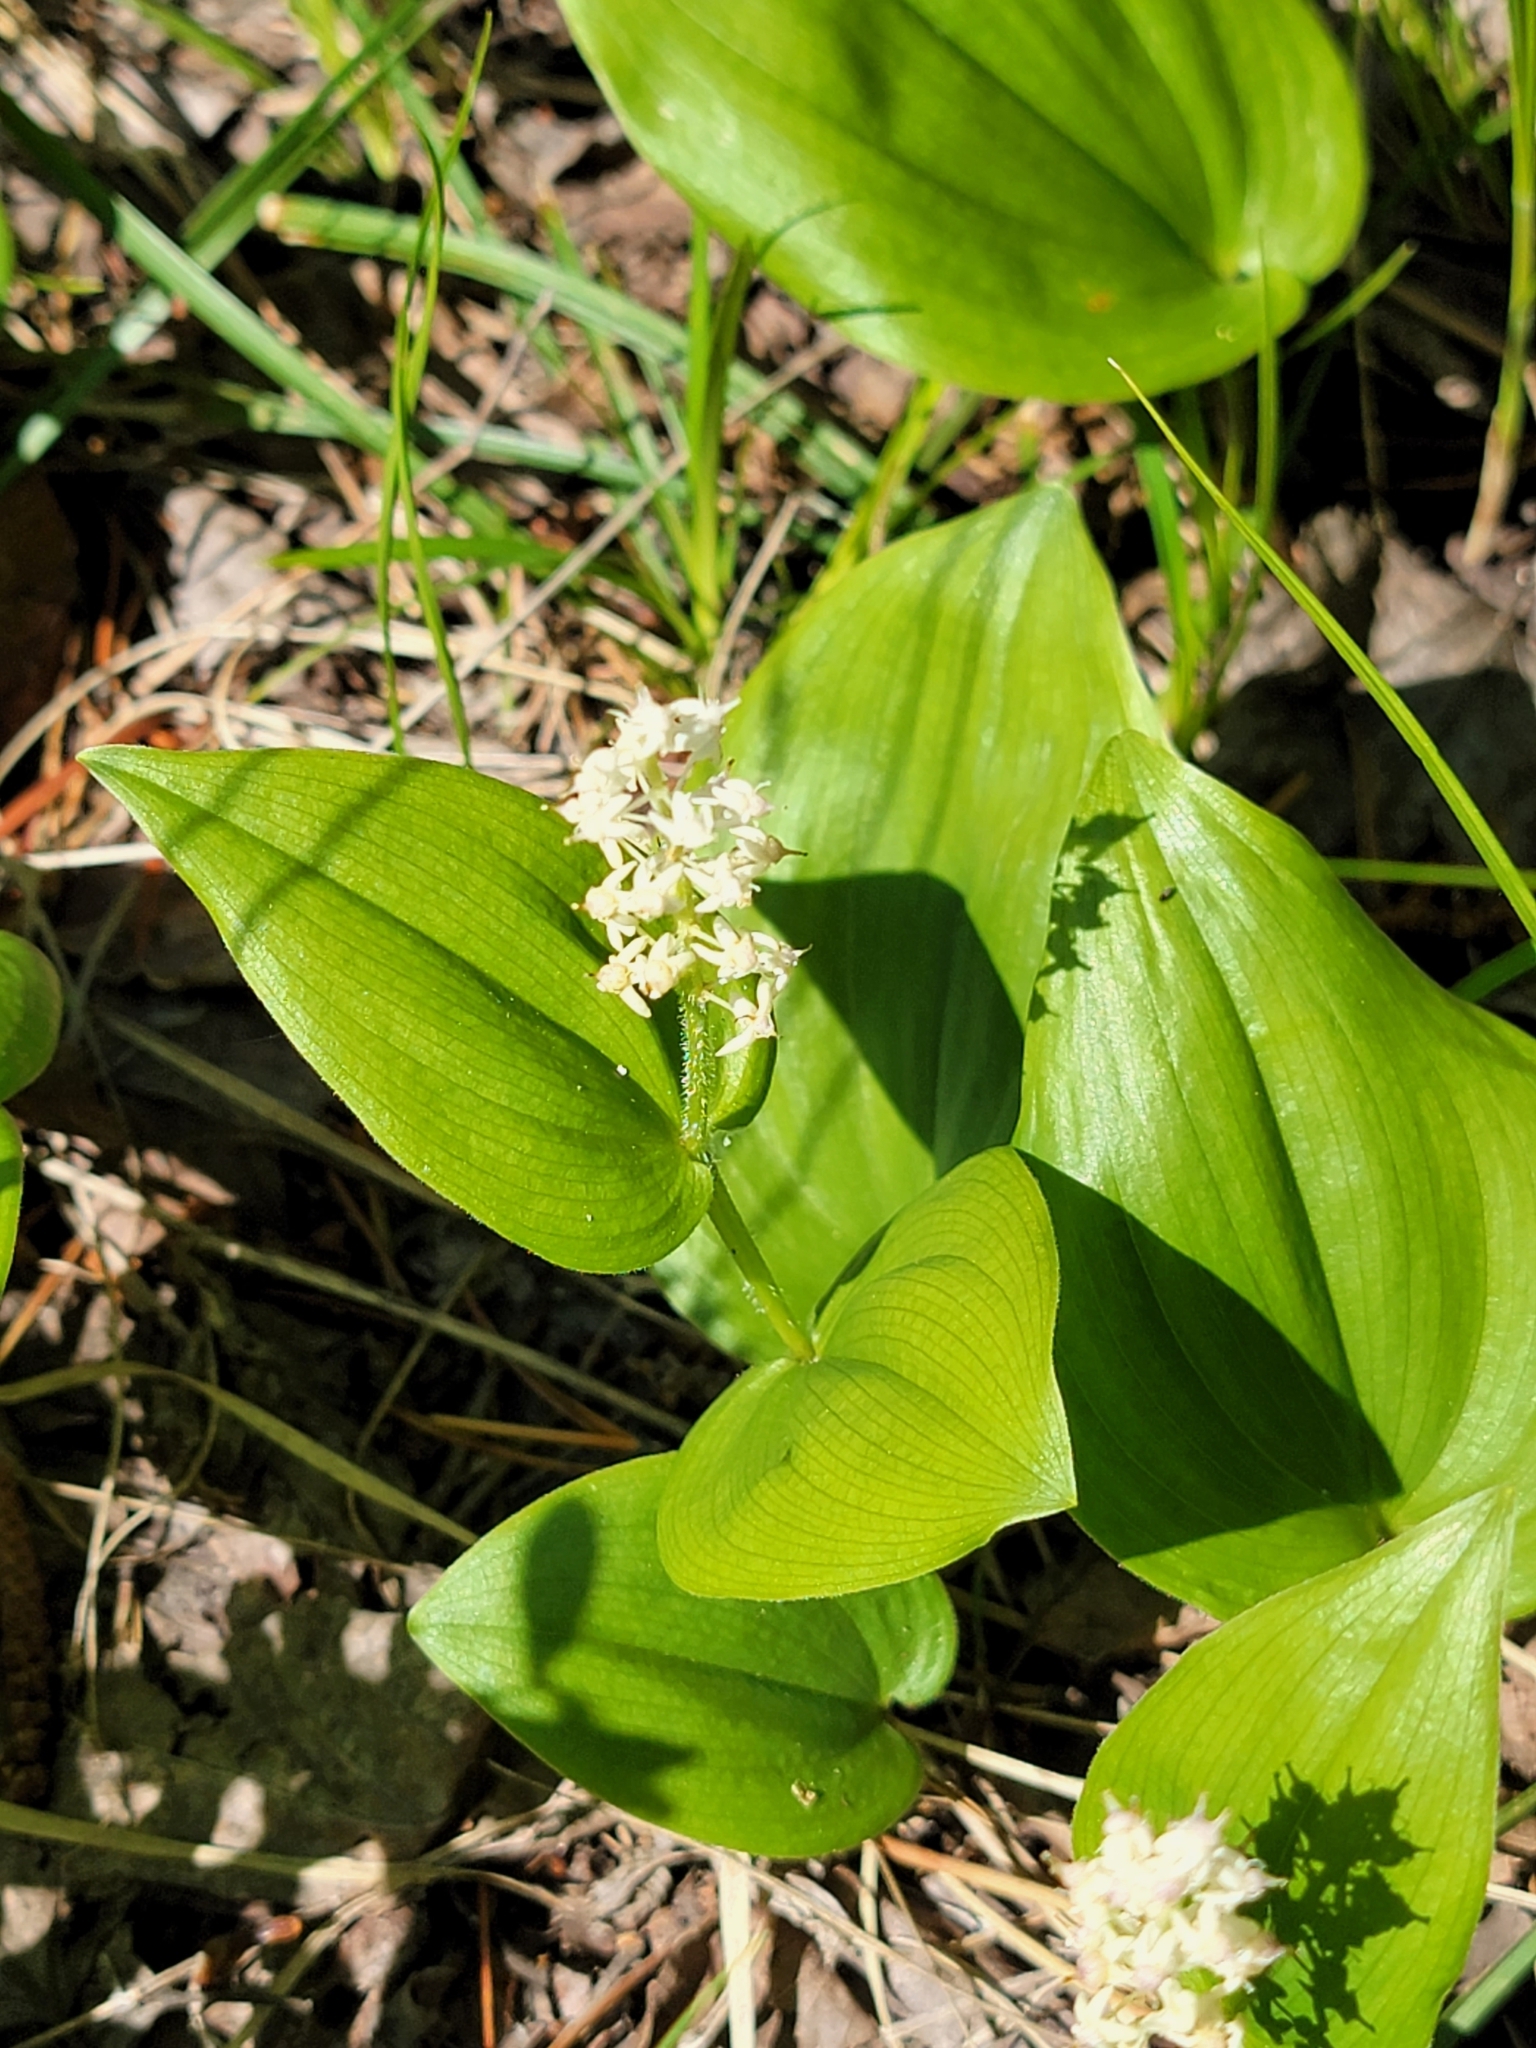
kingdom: Plantae
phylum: Tracheophyta
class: Liliopsida
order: Asparagales
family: Asparagaceae
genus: Maianthemum
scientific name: Maianthemum canadense
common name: False lily-of-the-valley
